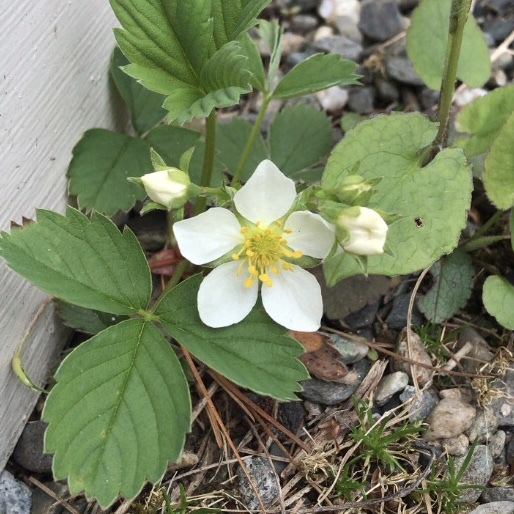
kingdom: Plantae
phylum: Tracheophyta
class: Magnoliopsida
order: Rosales
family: Rosaceae
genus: Fragaria
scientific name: Fragaria virginiana
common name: Thickleaved wild strawberry
